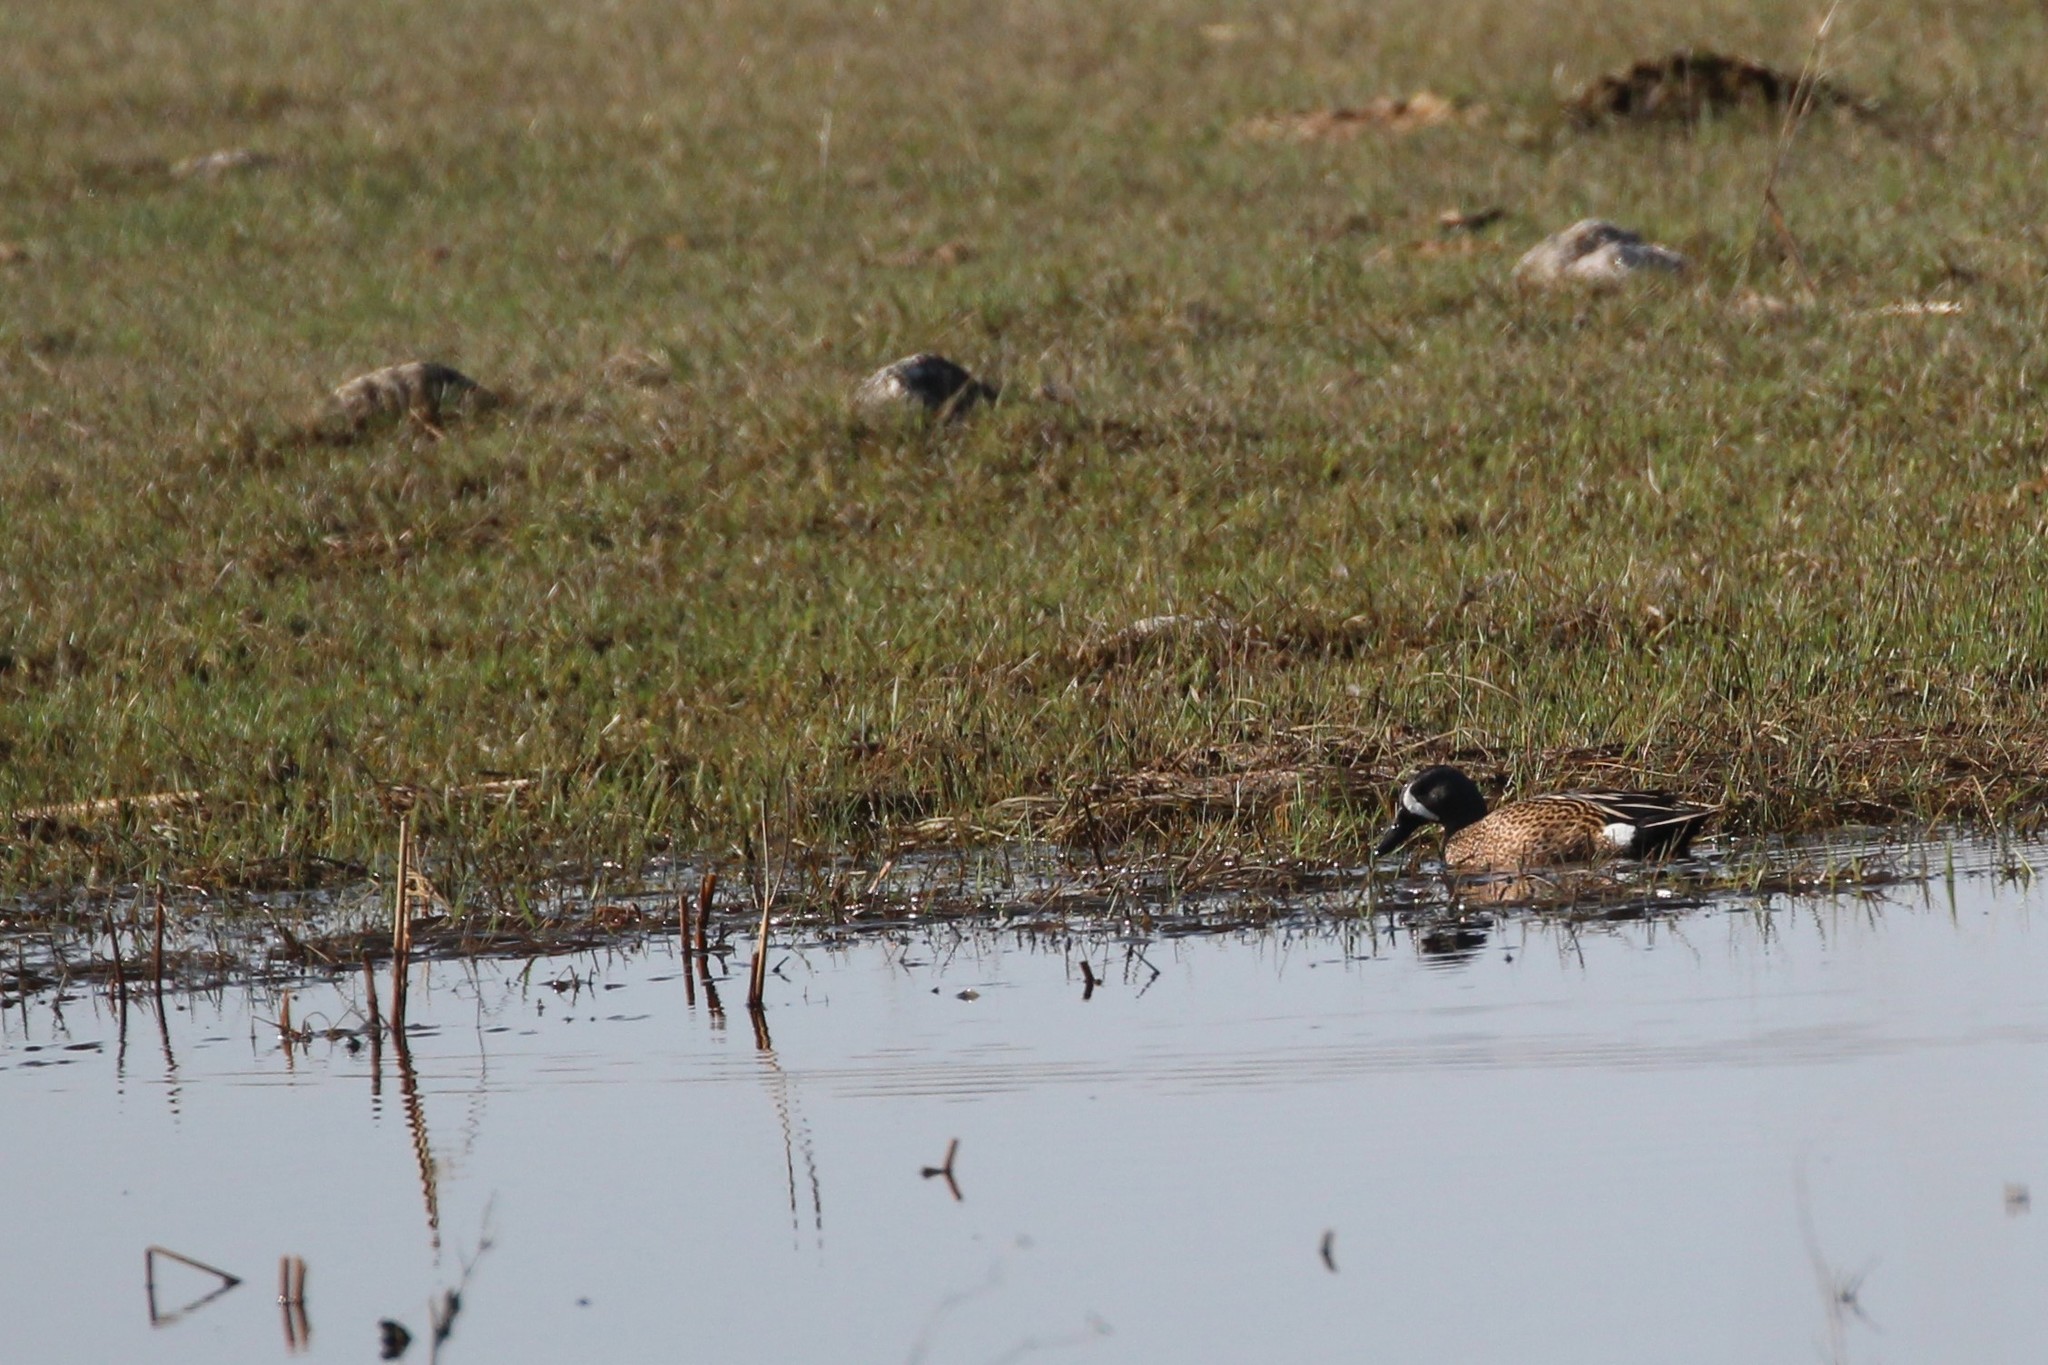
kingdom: Animalia
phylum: Chordata
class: Aves
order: Anseriformes
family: Anatidae
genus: Spatula
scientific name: Spatula discors
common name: Blue-winged teal
